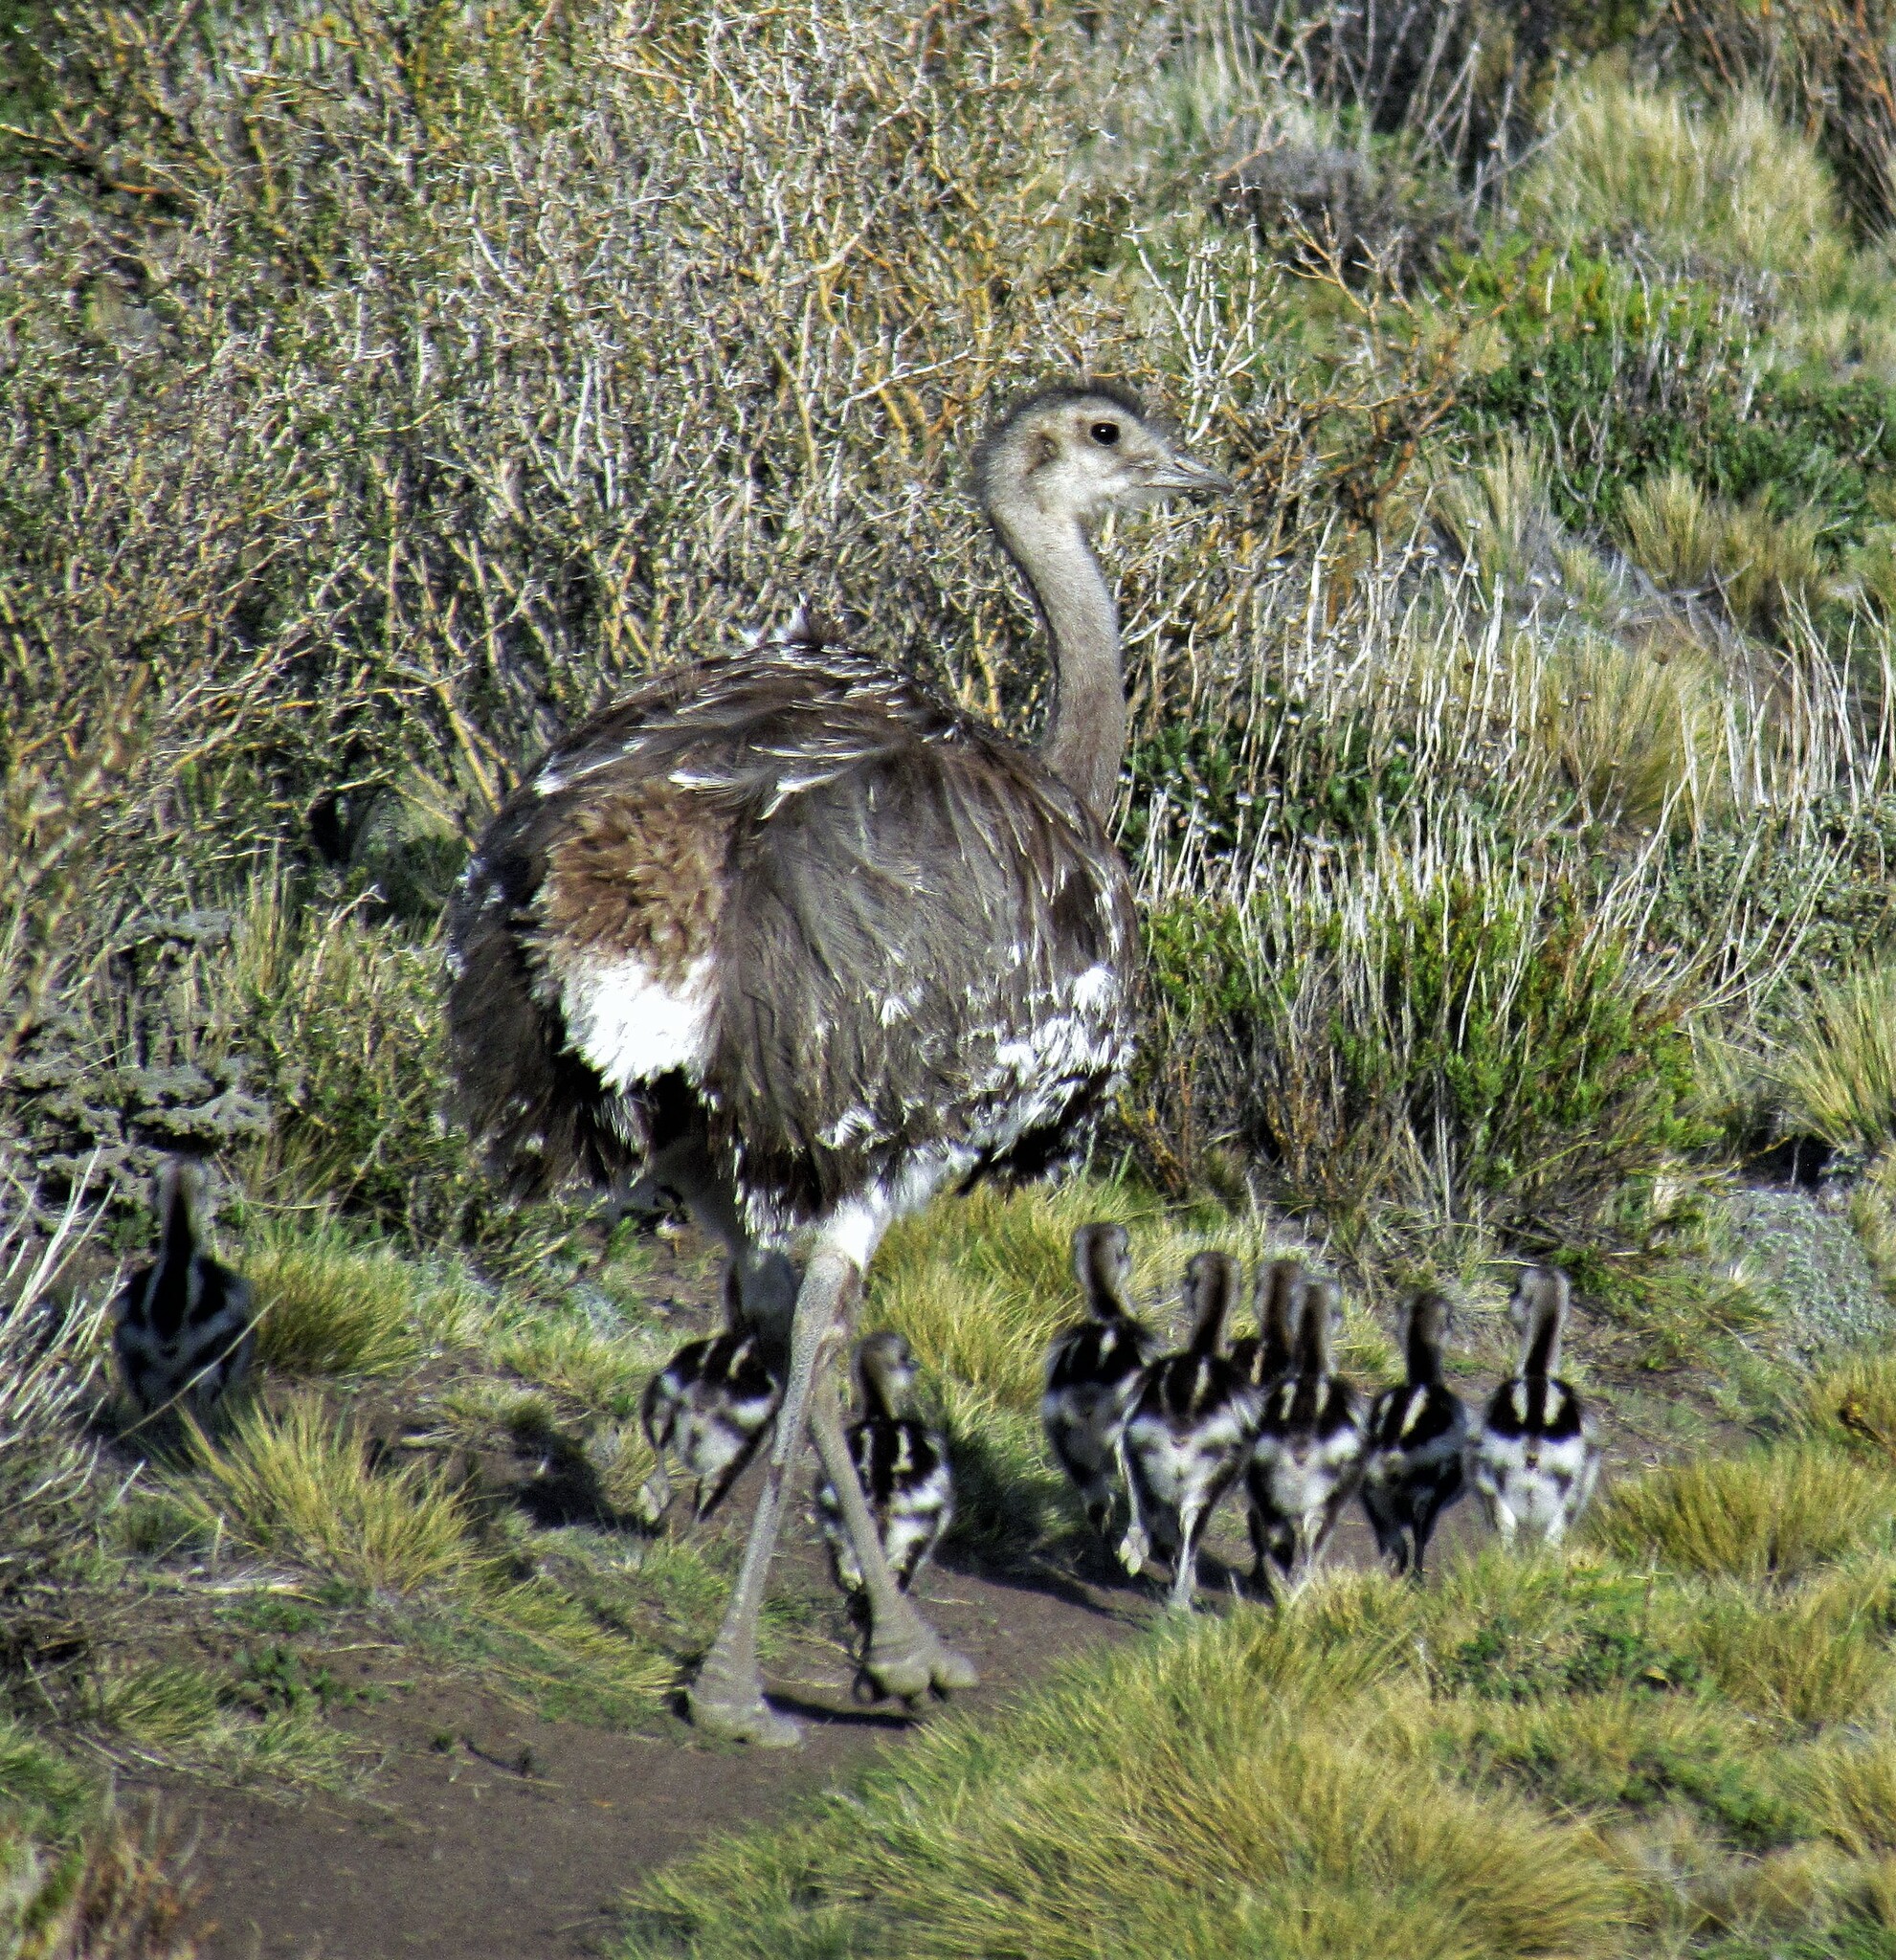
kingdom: Animalia
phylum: Chordata
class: Aves
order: Rheiformes
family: Rheidae
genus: Rhea
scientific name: Rhea pennata
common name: Lesser rhea
